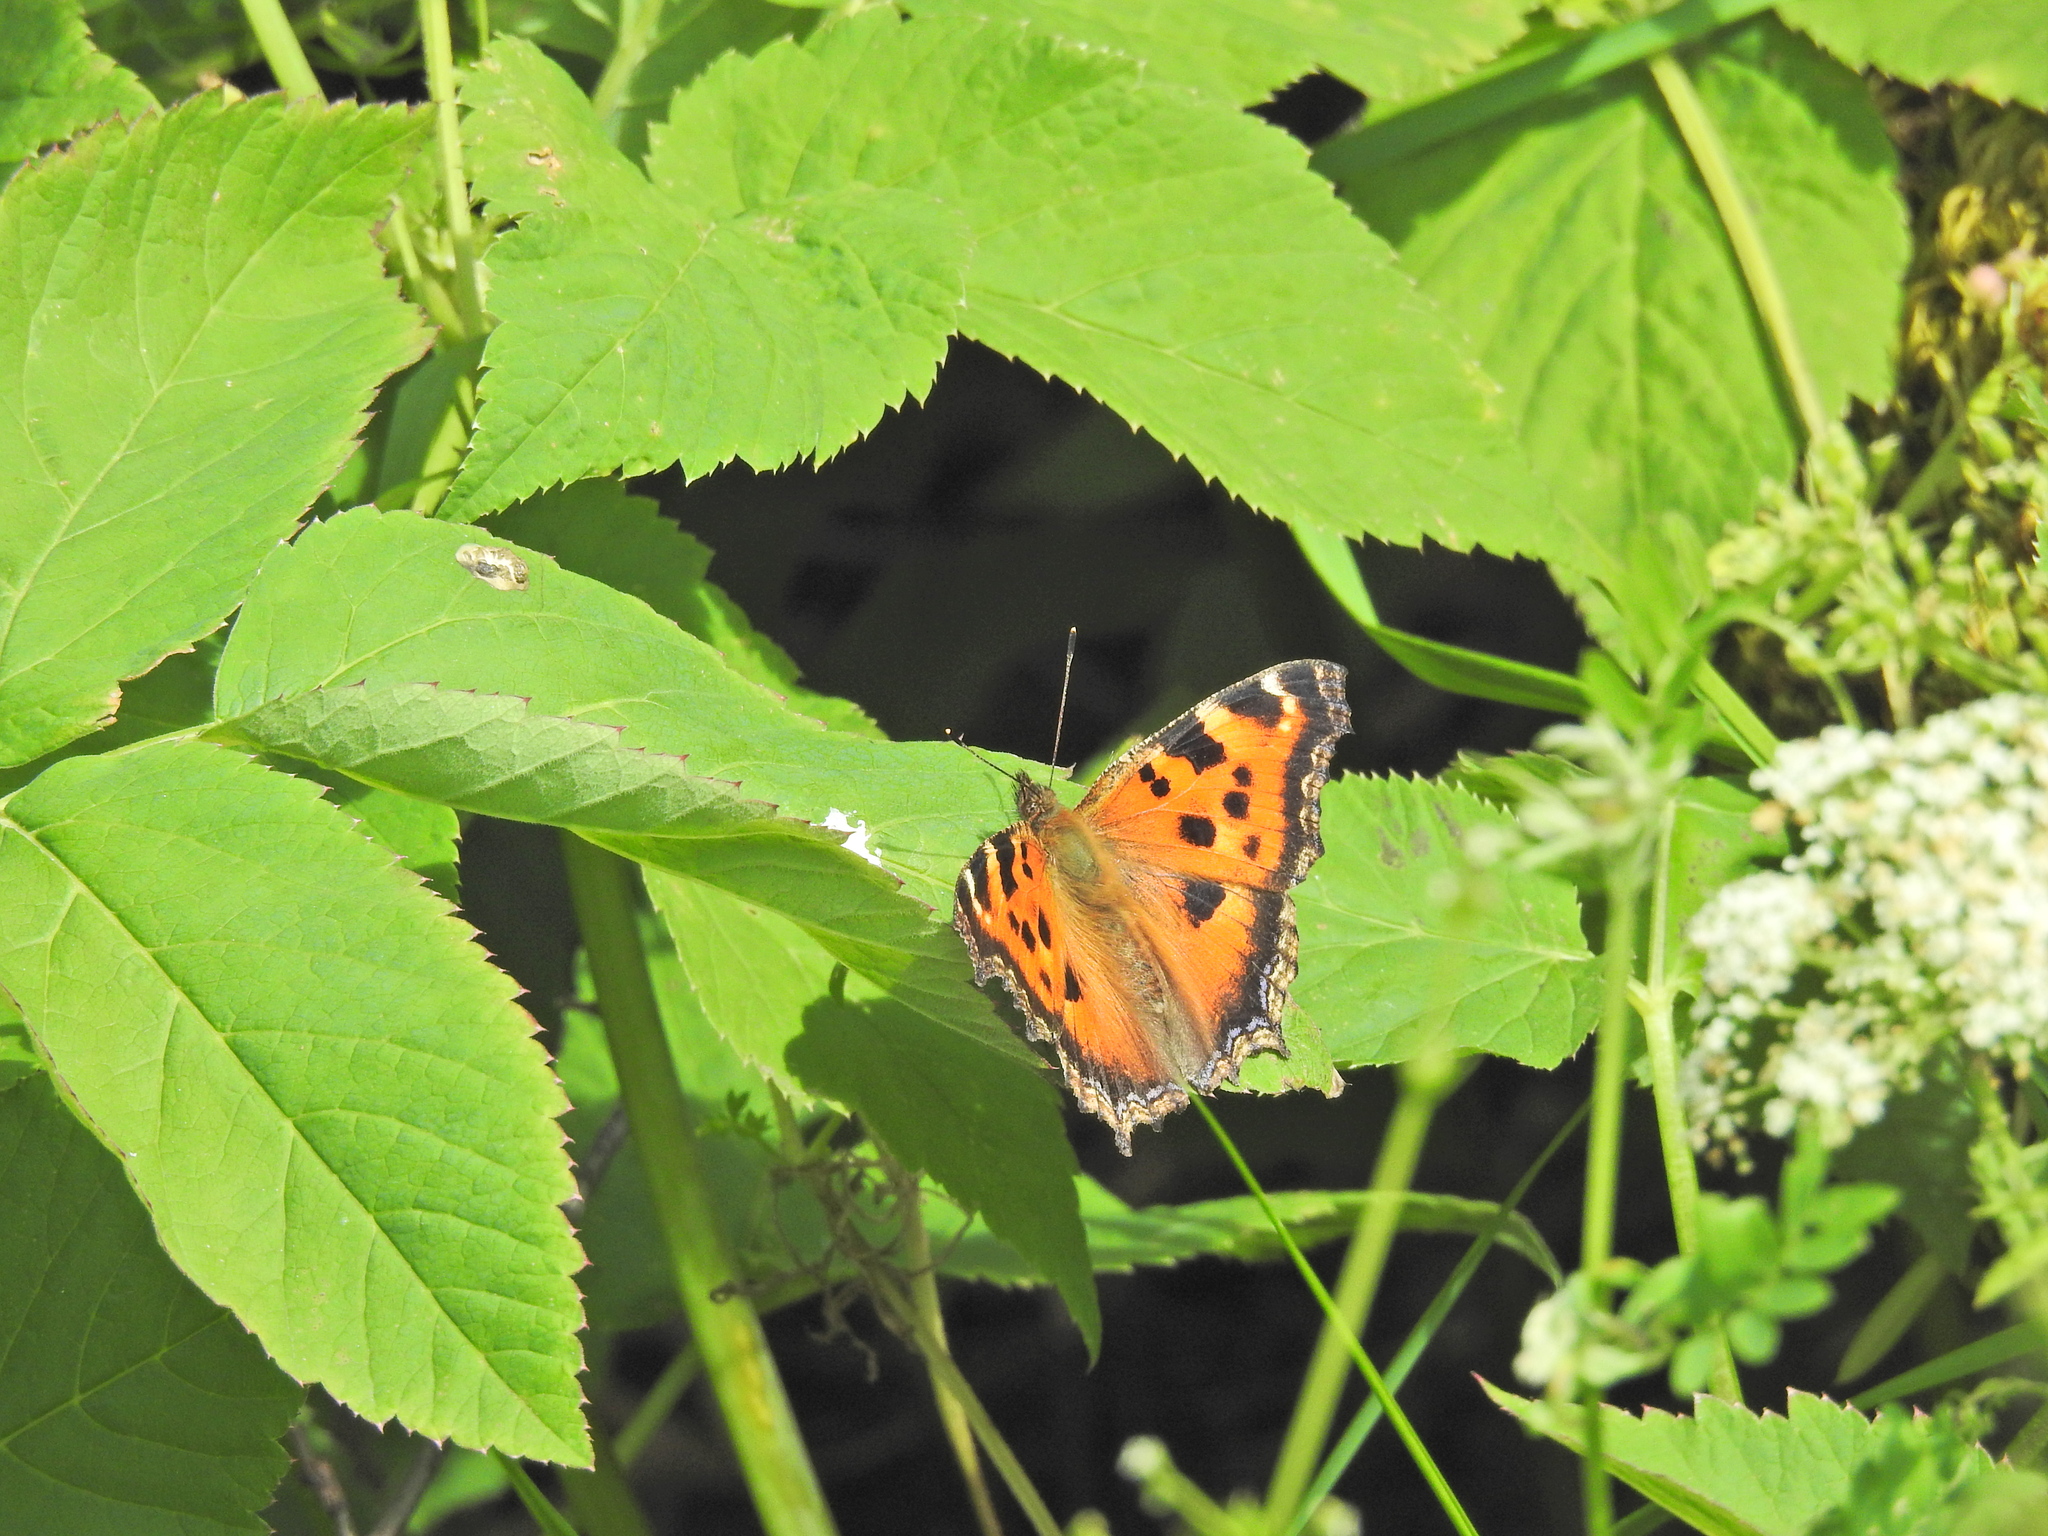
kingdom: Animalia
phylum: Arthropoda
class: Insecta
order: Lepidoptera
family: Nymphalidae
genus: Nymphalis
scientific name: Nymphalis xanthomelas
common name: Scarce tortoiseshell
